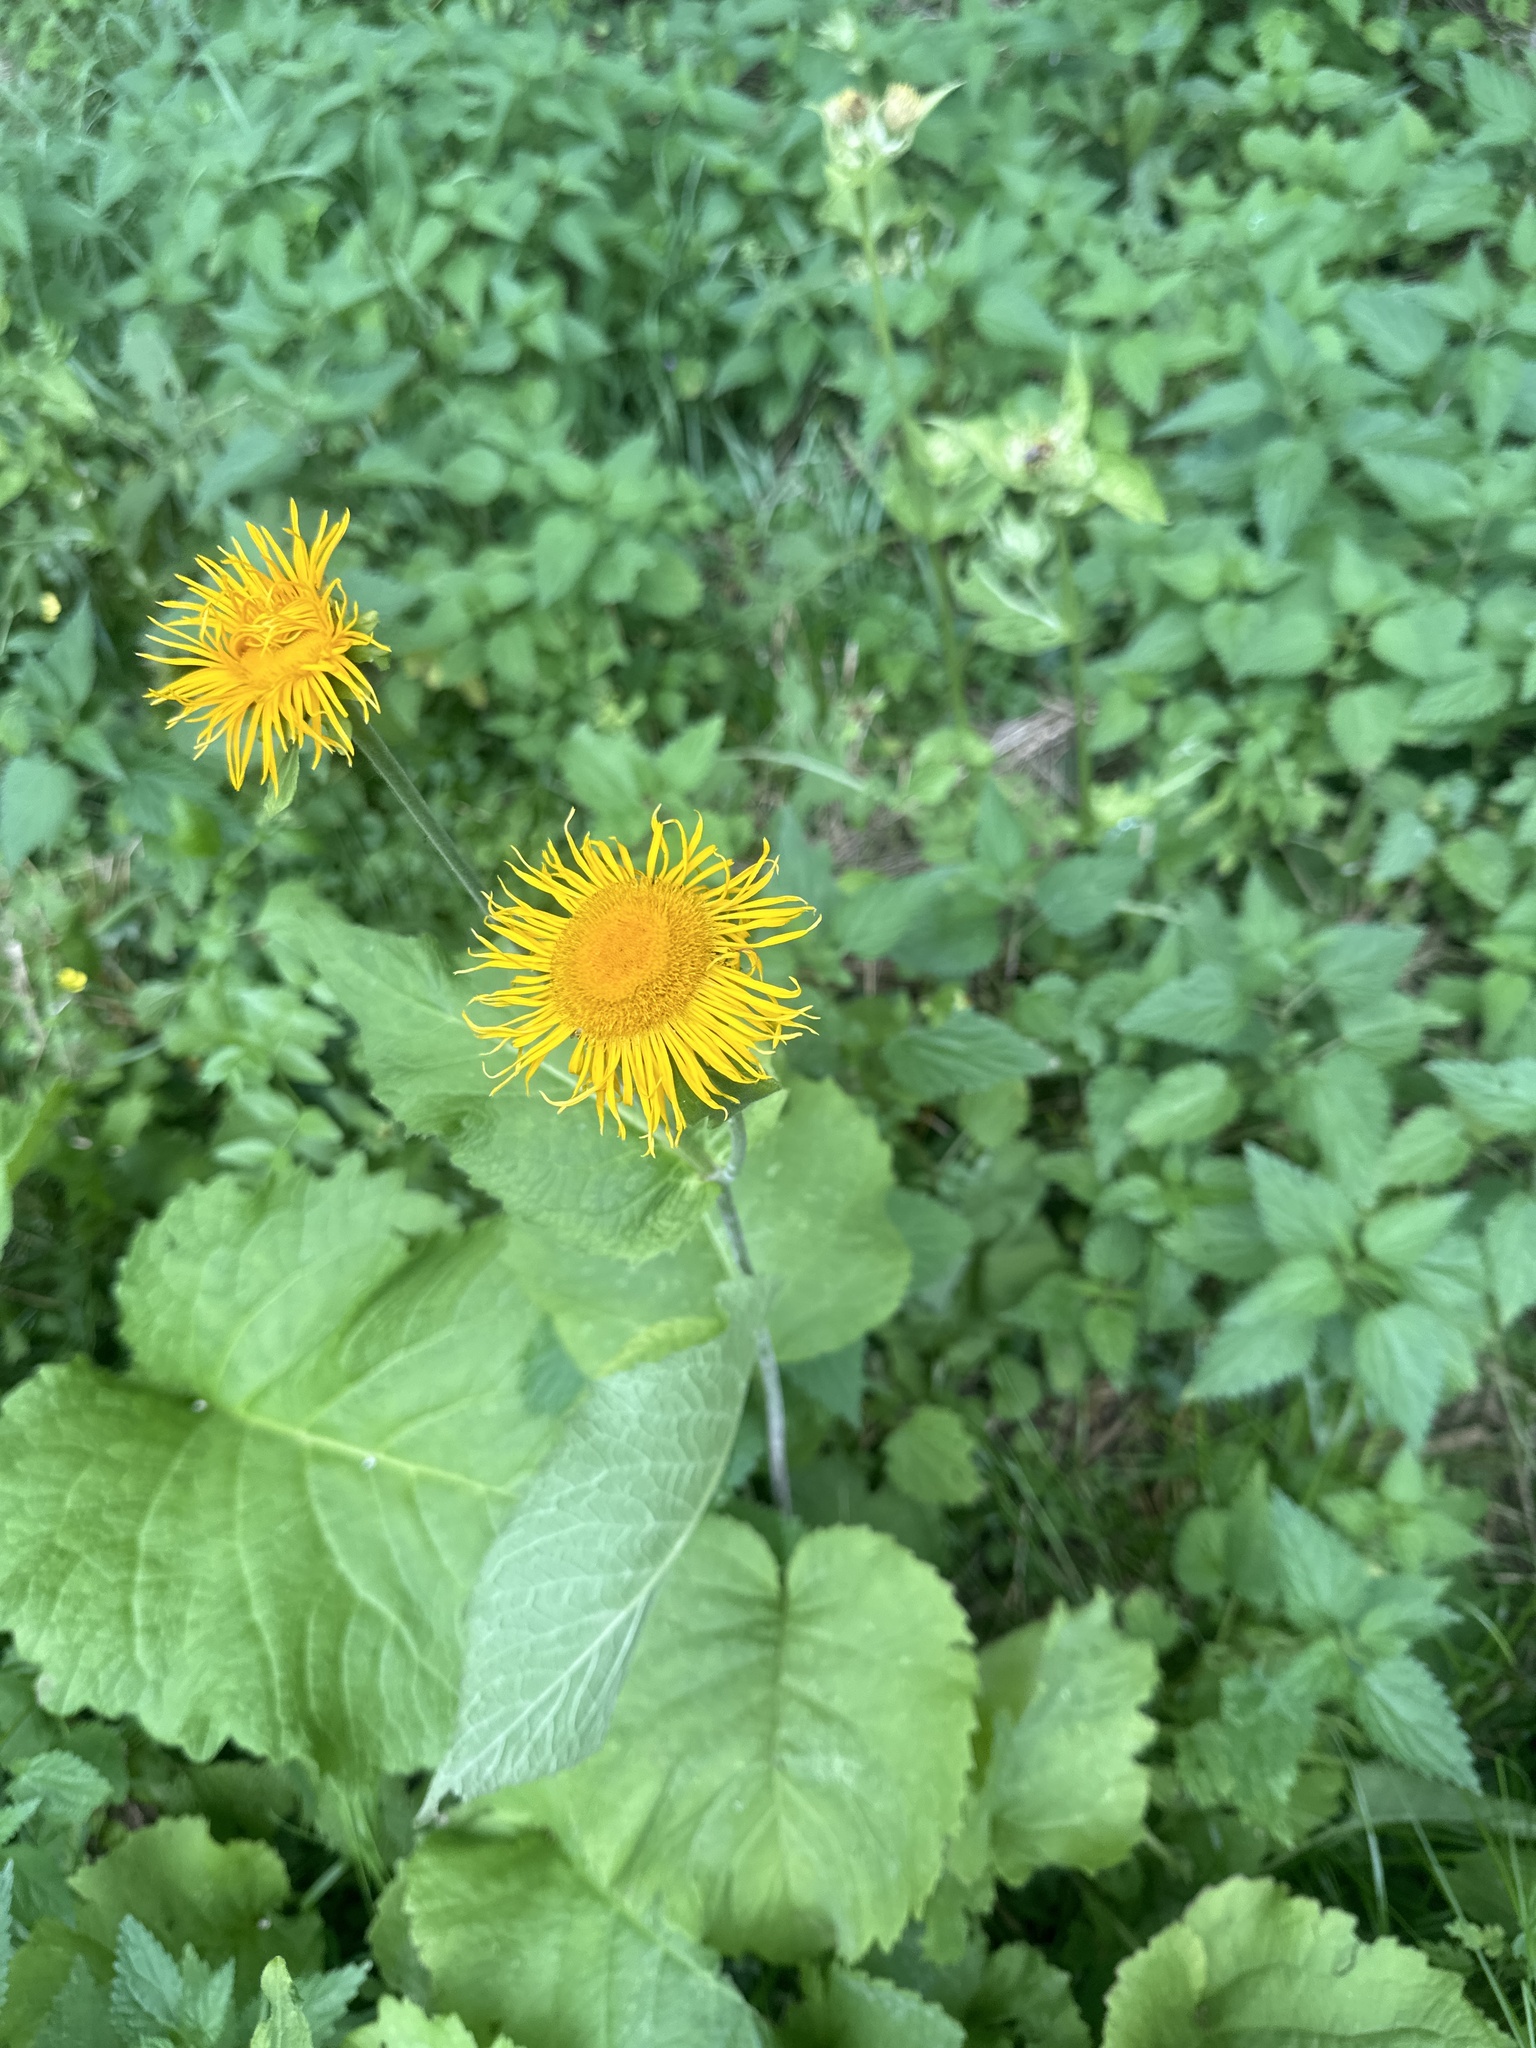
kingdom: Plantae
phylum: Tracheophyta
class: Magnoliopsida
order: Asterales
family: Asteraceae
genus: Telekia
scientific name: Telekia speciosa
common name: Yellow oxeye
